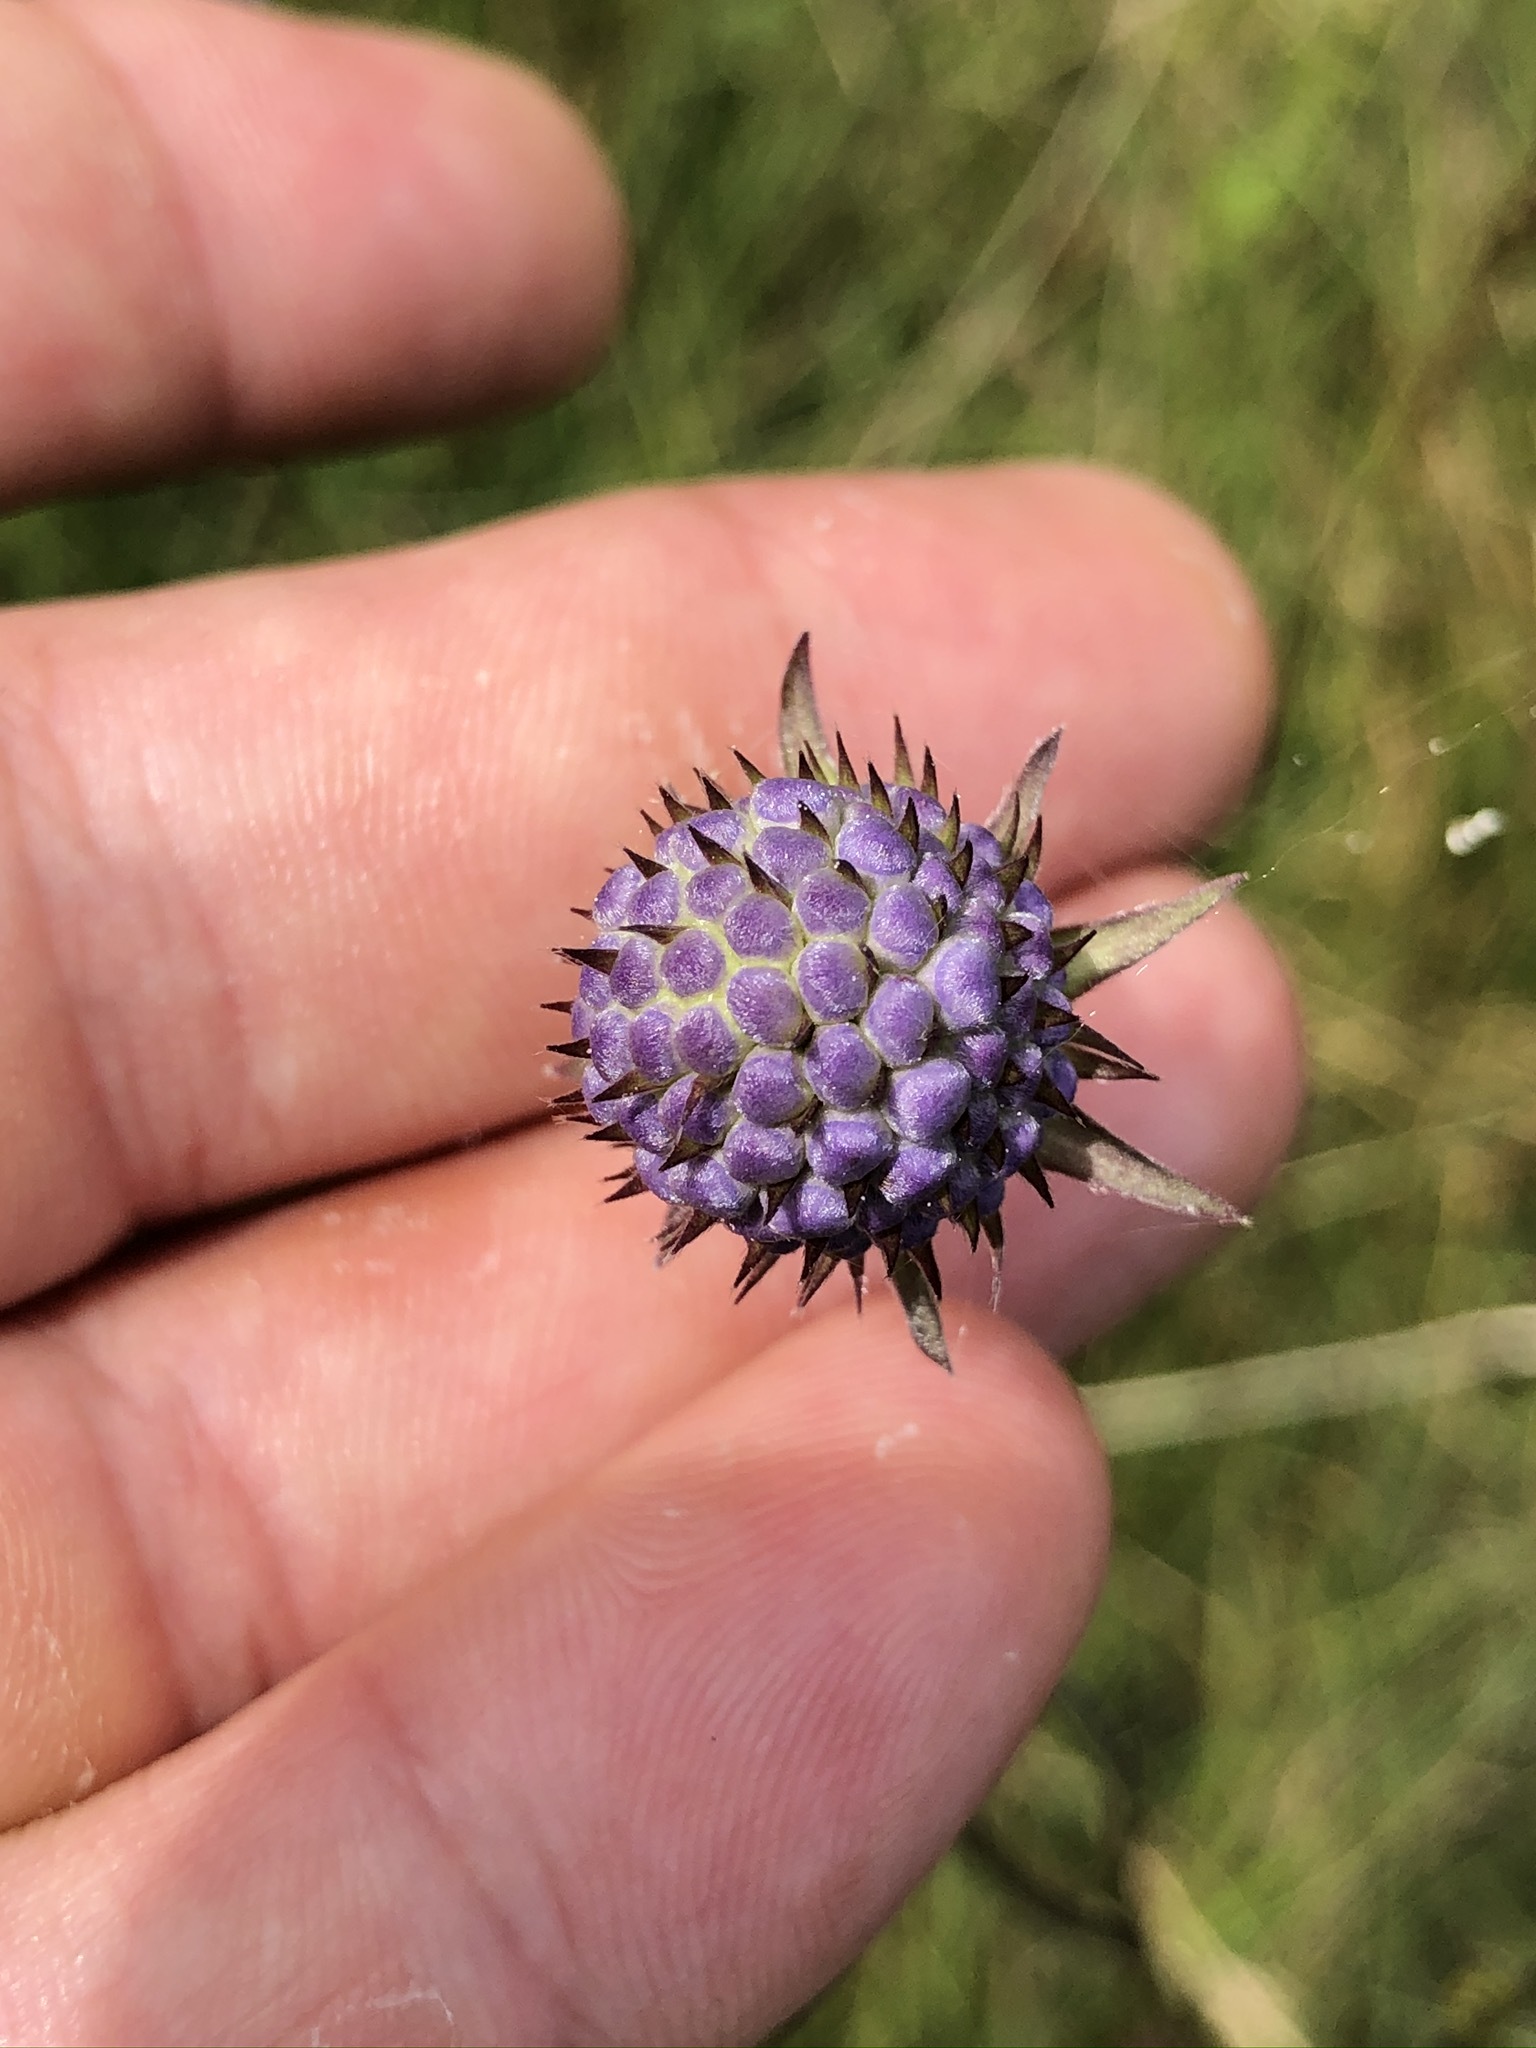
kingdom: Plantae
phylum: Tracheophyta
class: Magnoliopsida
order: Dipsacales
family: Caprifoliaceae
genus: Succisa
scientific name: Succisa pratensis
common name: Devil's-bit
